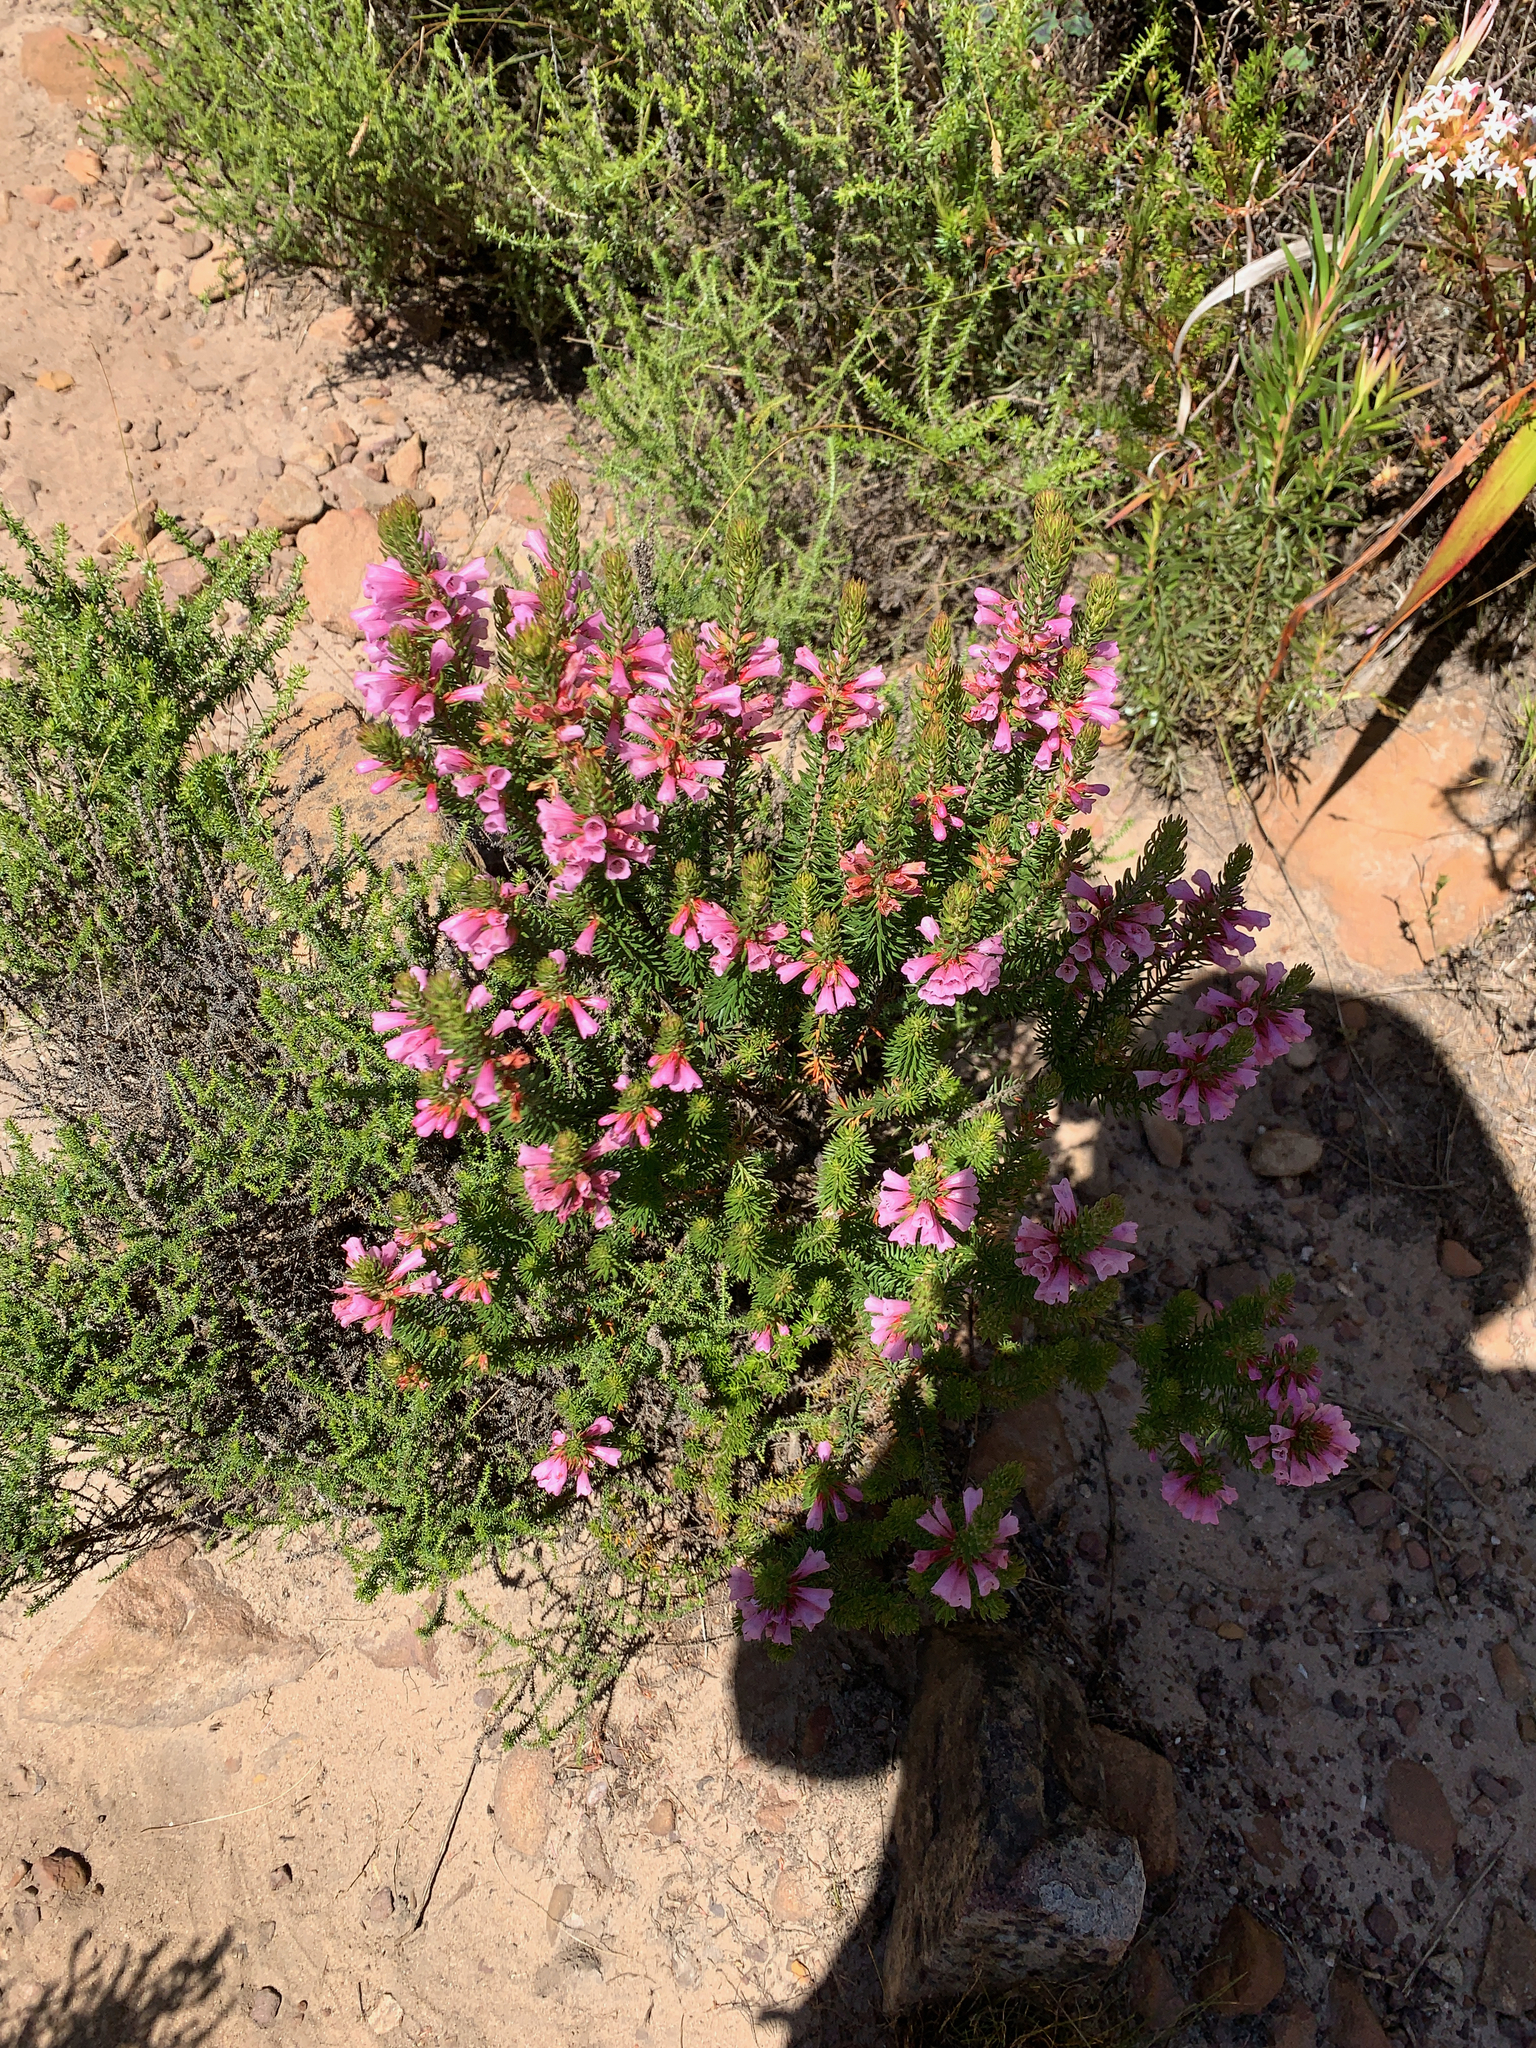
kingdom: Plantae
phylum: Tracheophyta
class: Magnoliopsida
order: Ericales
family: Ericaceae
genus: Erica
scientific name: Erica abietina
